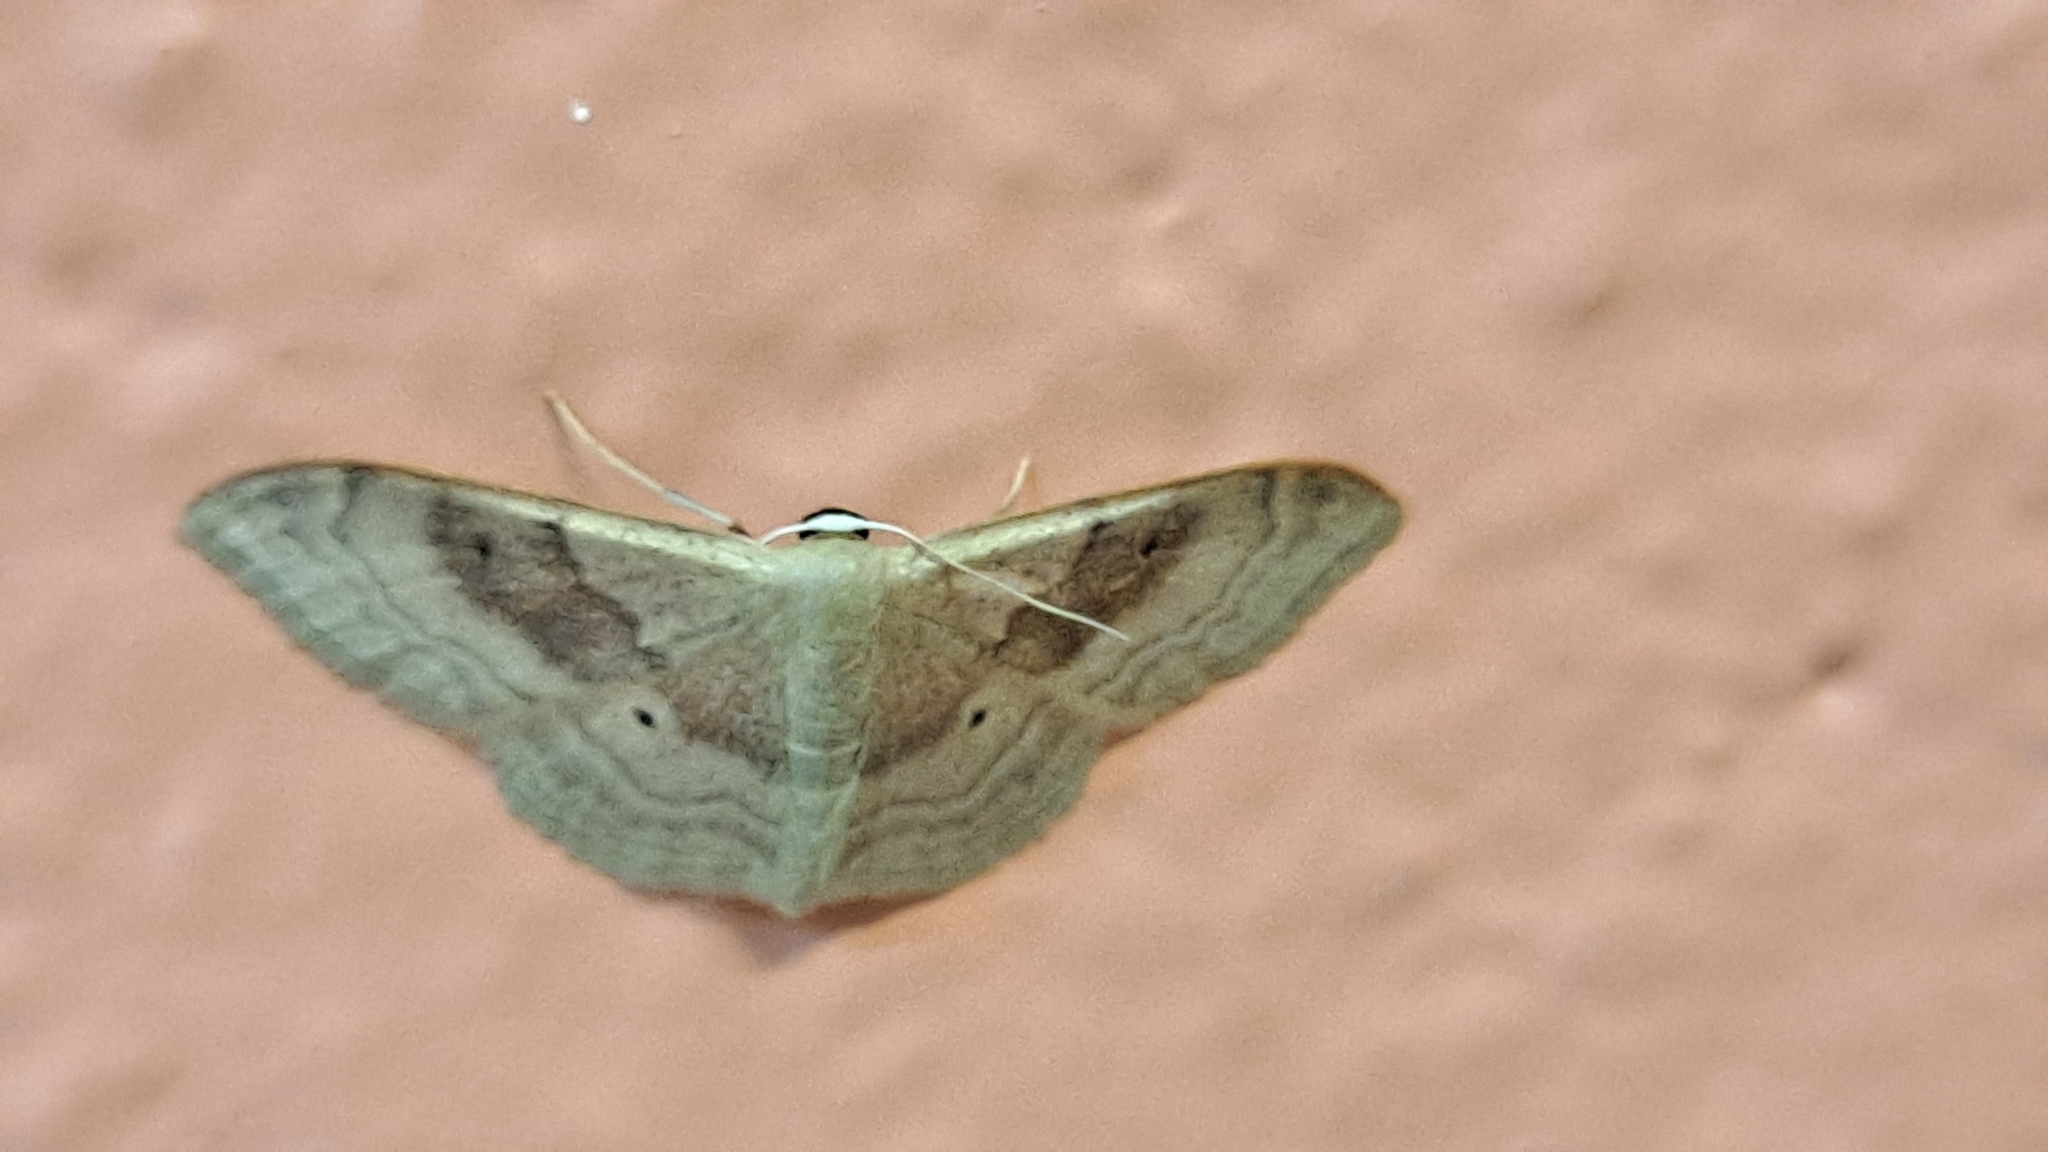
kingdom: Animalia
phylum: Arthropoda
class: Insecta
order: Lepidoptera
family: Geometridae
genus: Idaea
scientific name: Idaea degeneraria
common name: Portland ribbon wave
